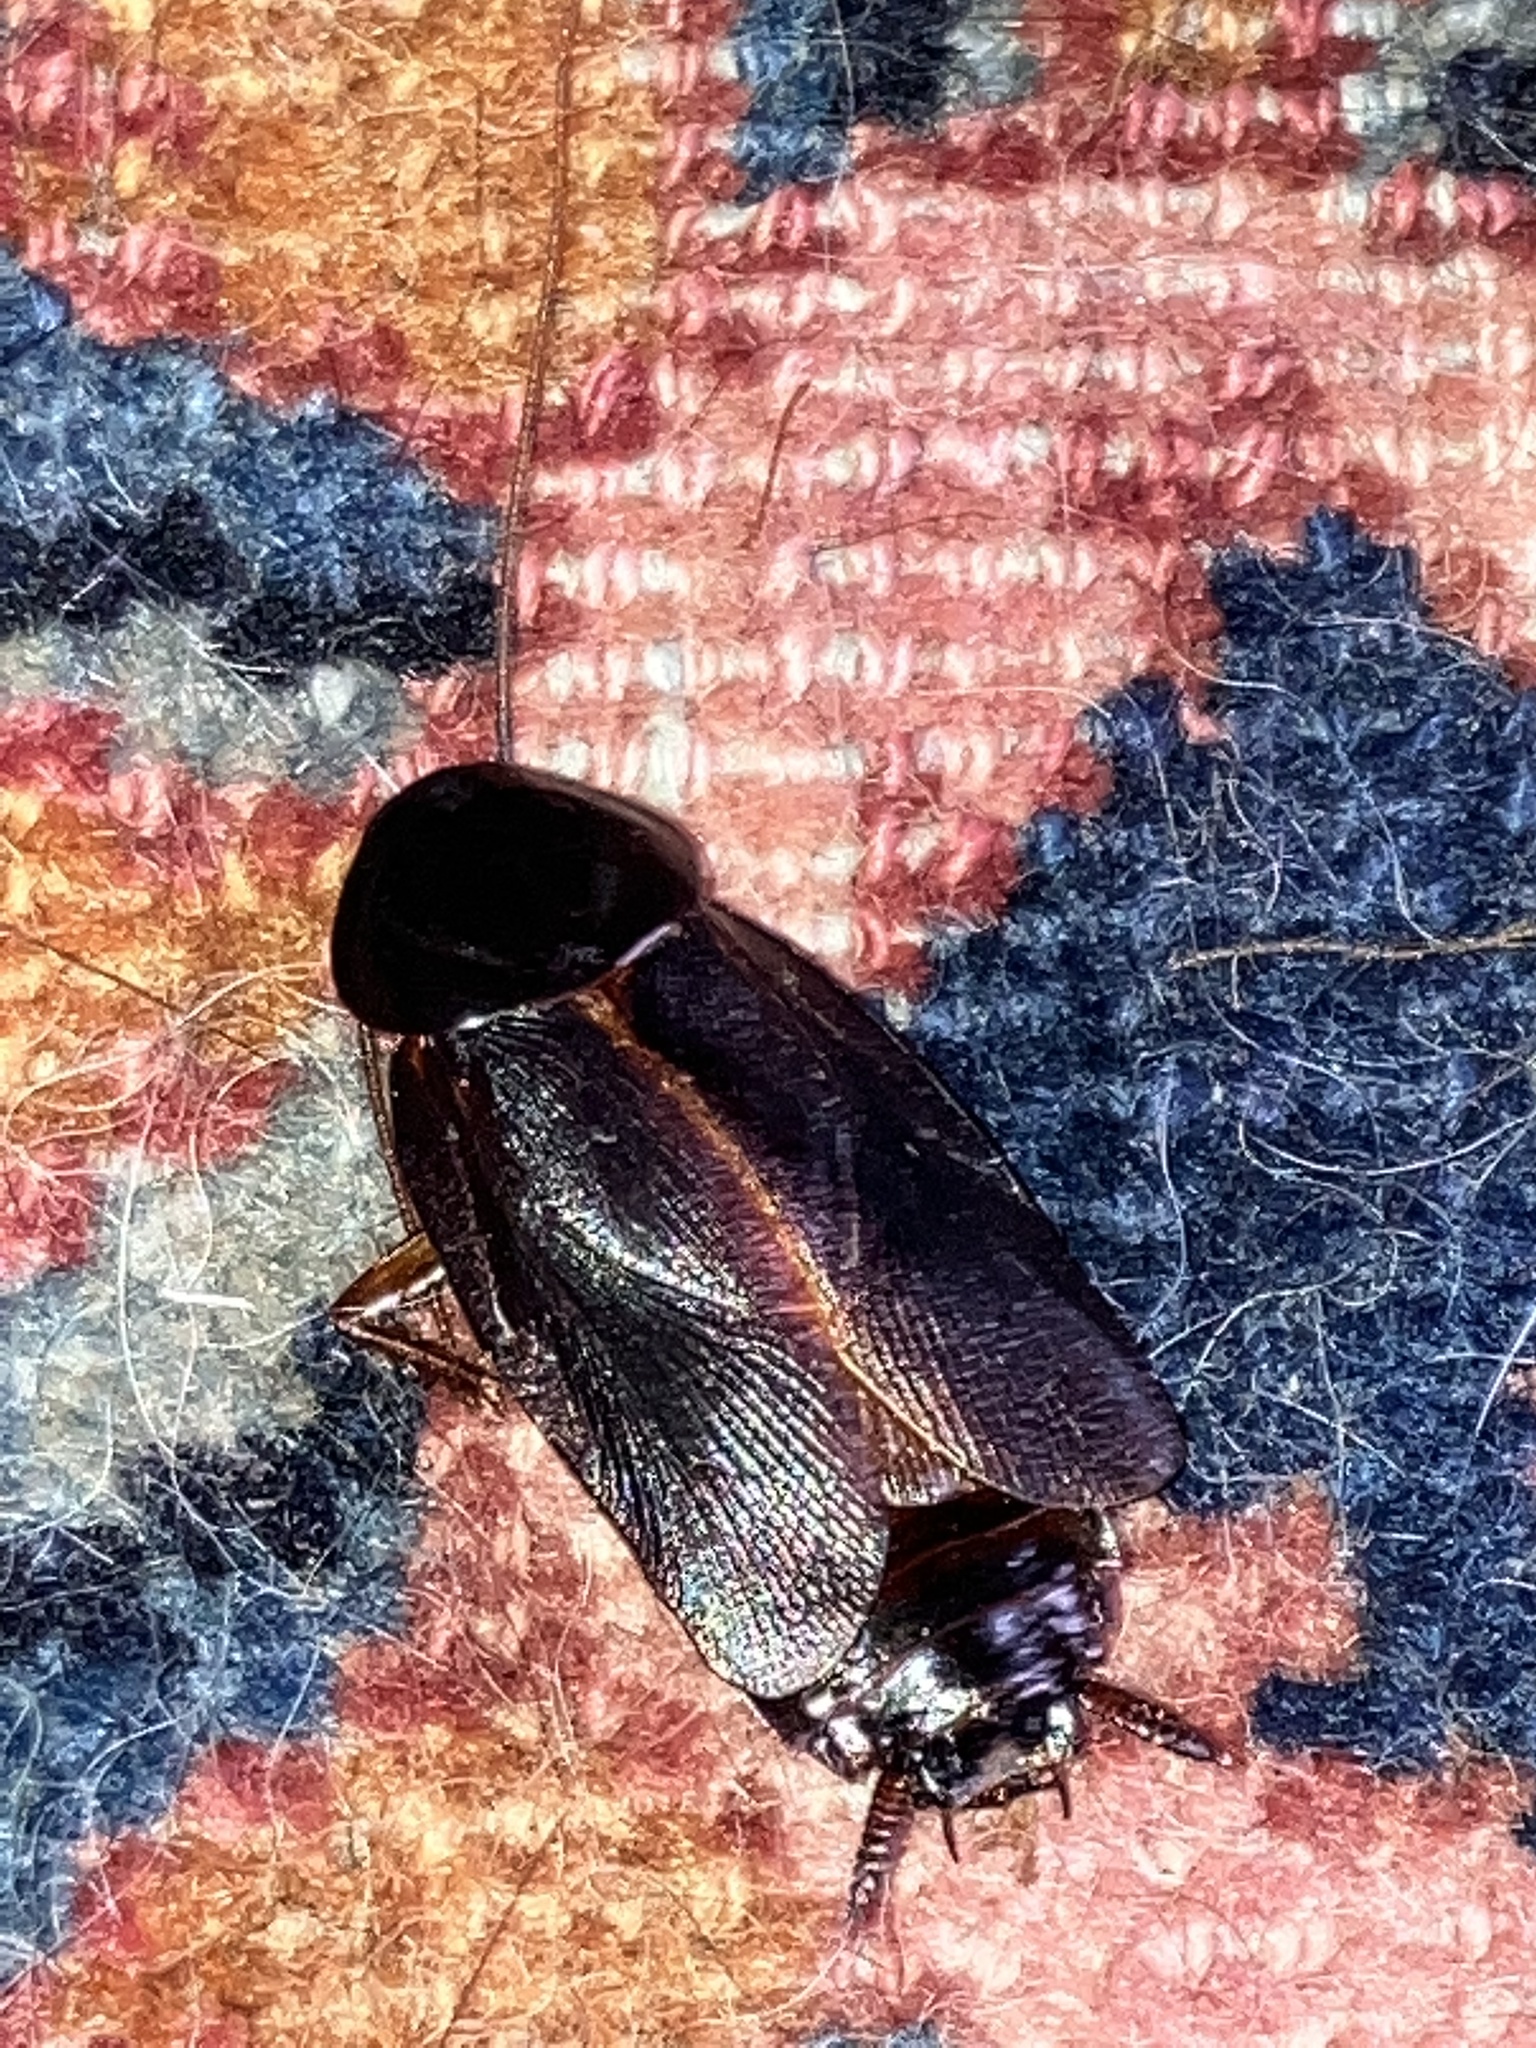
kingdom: Animalia
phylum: Arthropoda
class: Insecta
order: Blattodea
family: Blattidae
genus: Blatta
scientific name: Blatta orientalis
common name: Oriental cockroach
